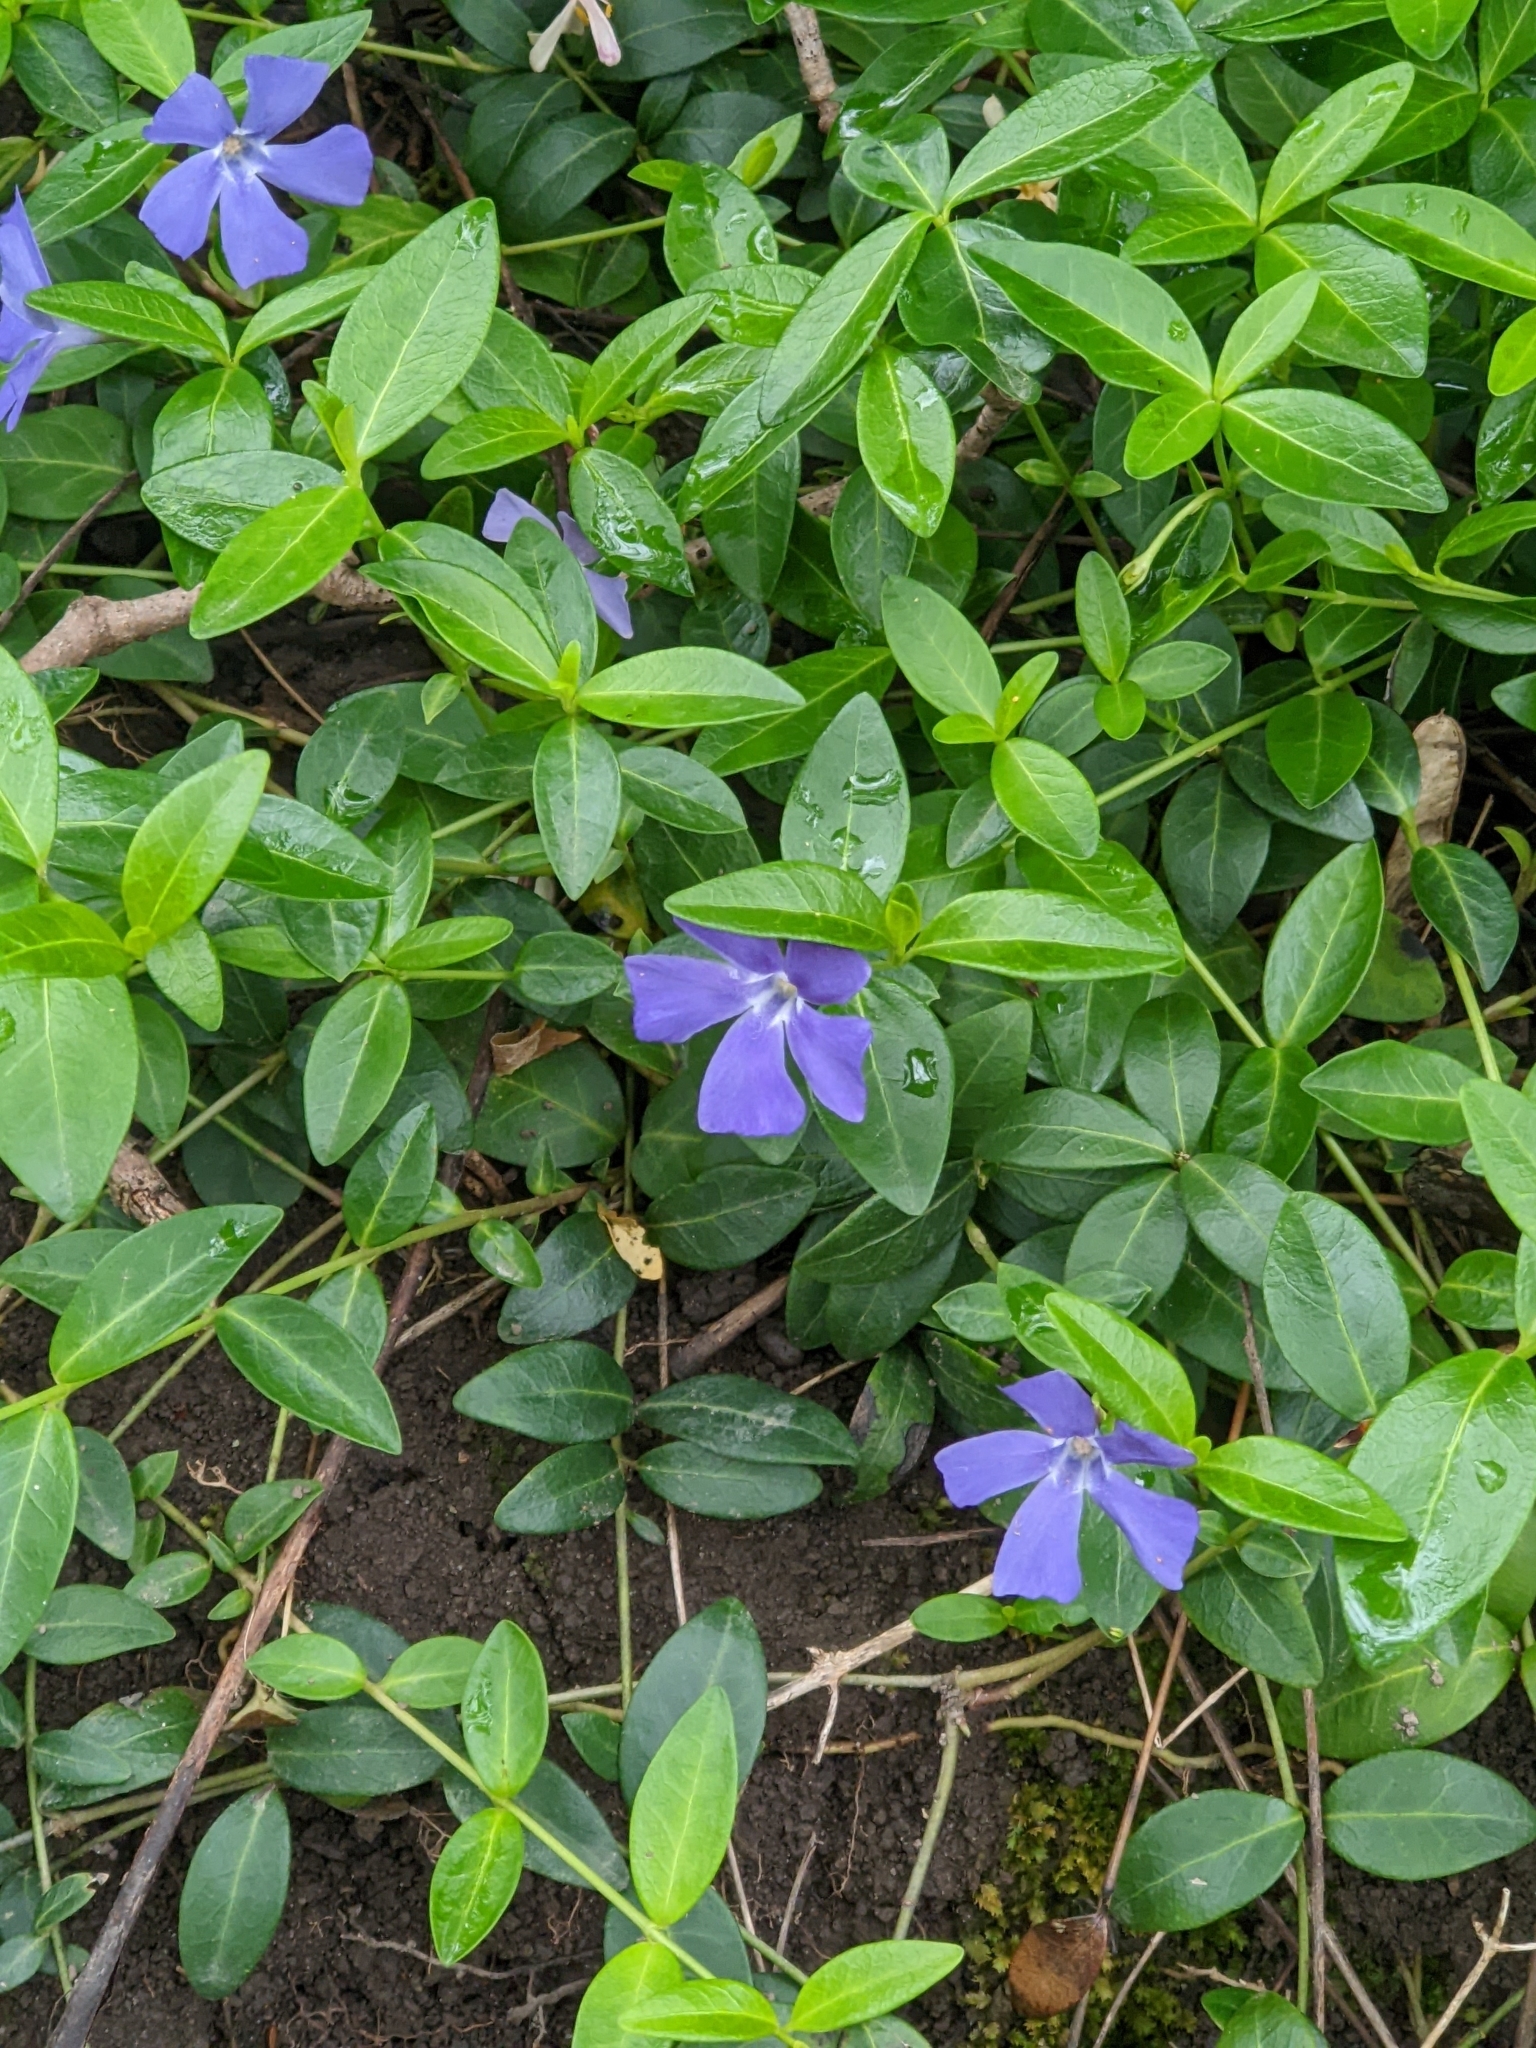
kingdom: Plantae
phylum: Tracheophyta
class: Magnoliopsida
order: Gentianales
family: Apocynaceae
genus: Vinca
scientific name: Vinca minor
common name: Lesser periwinkle
